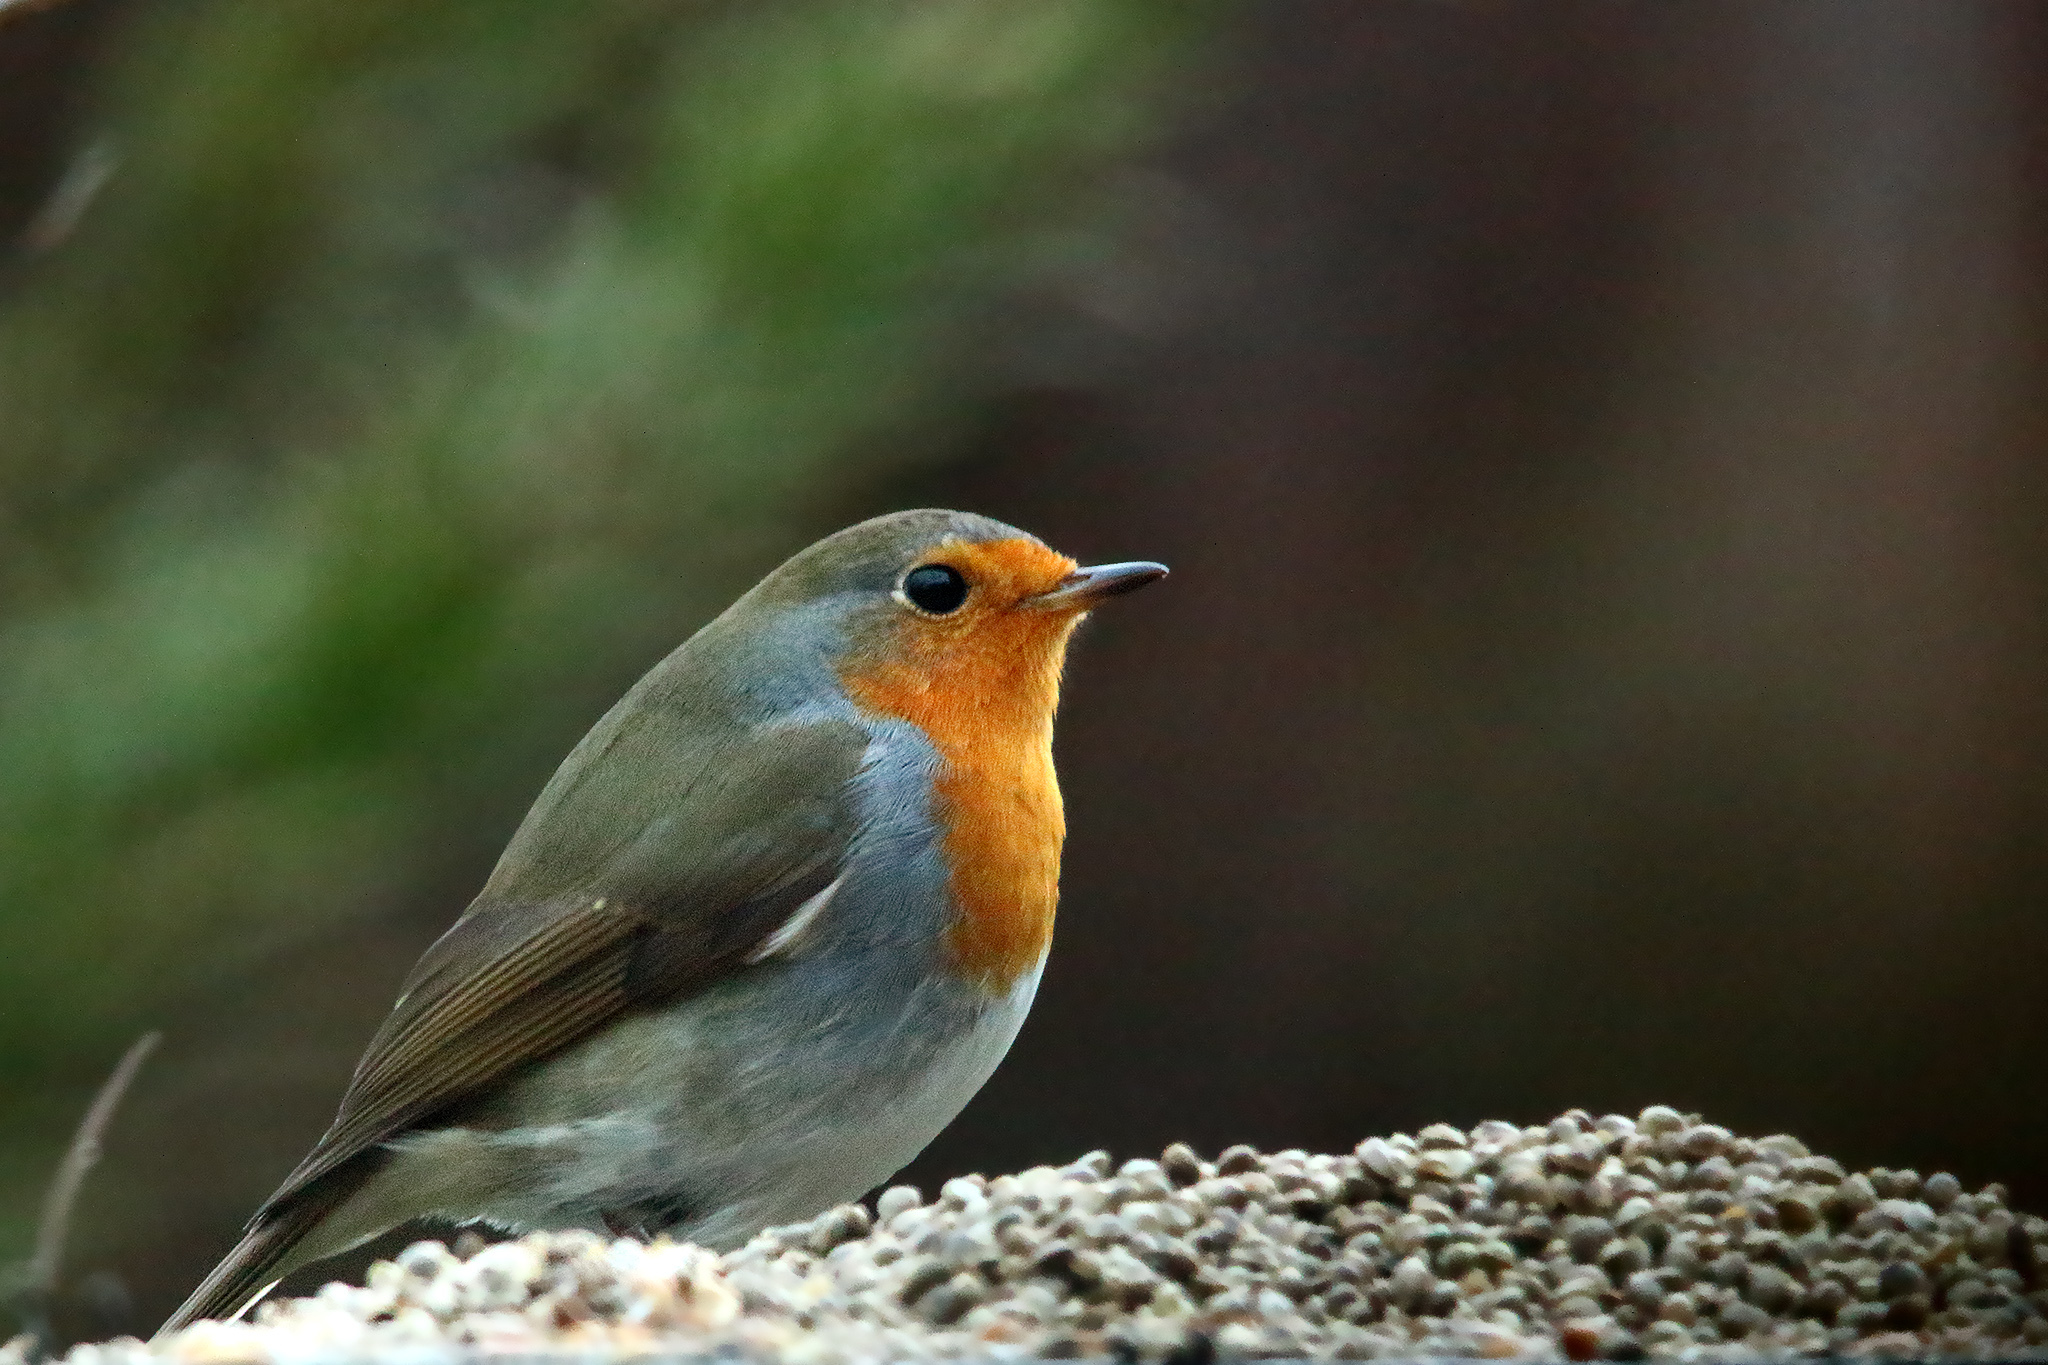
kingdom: Animalia
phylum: Chordata
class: Aves
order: Passeriformes
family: Muscicapidae
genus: Erithacus
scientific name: Erithacus rubecula
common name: European robin
